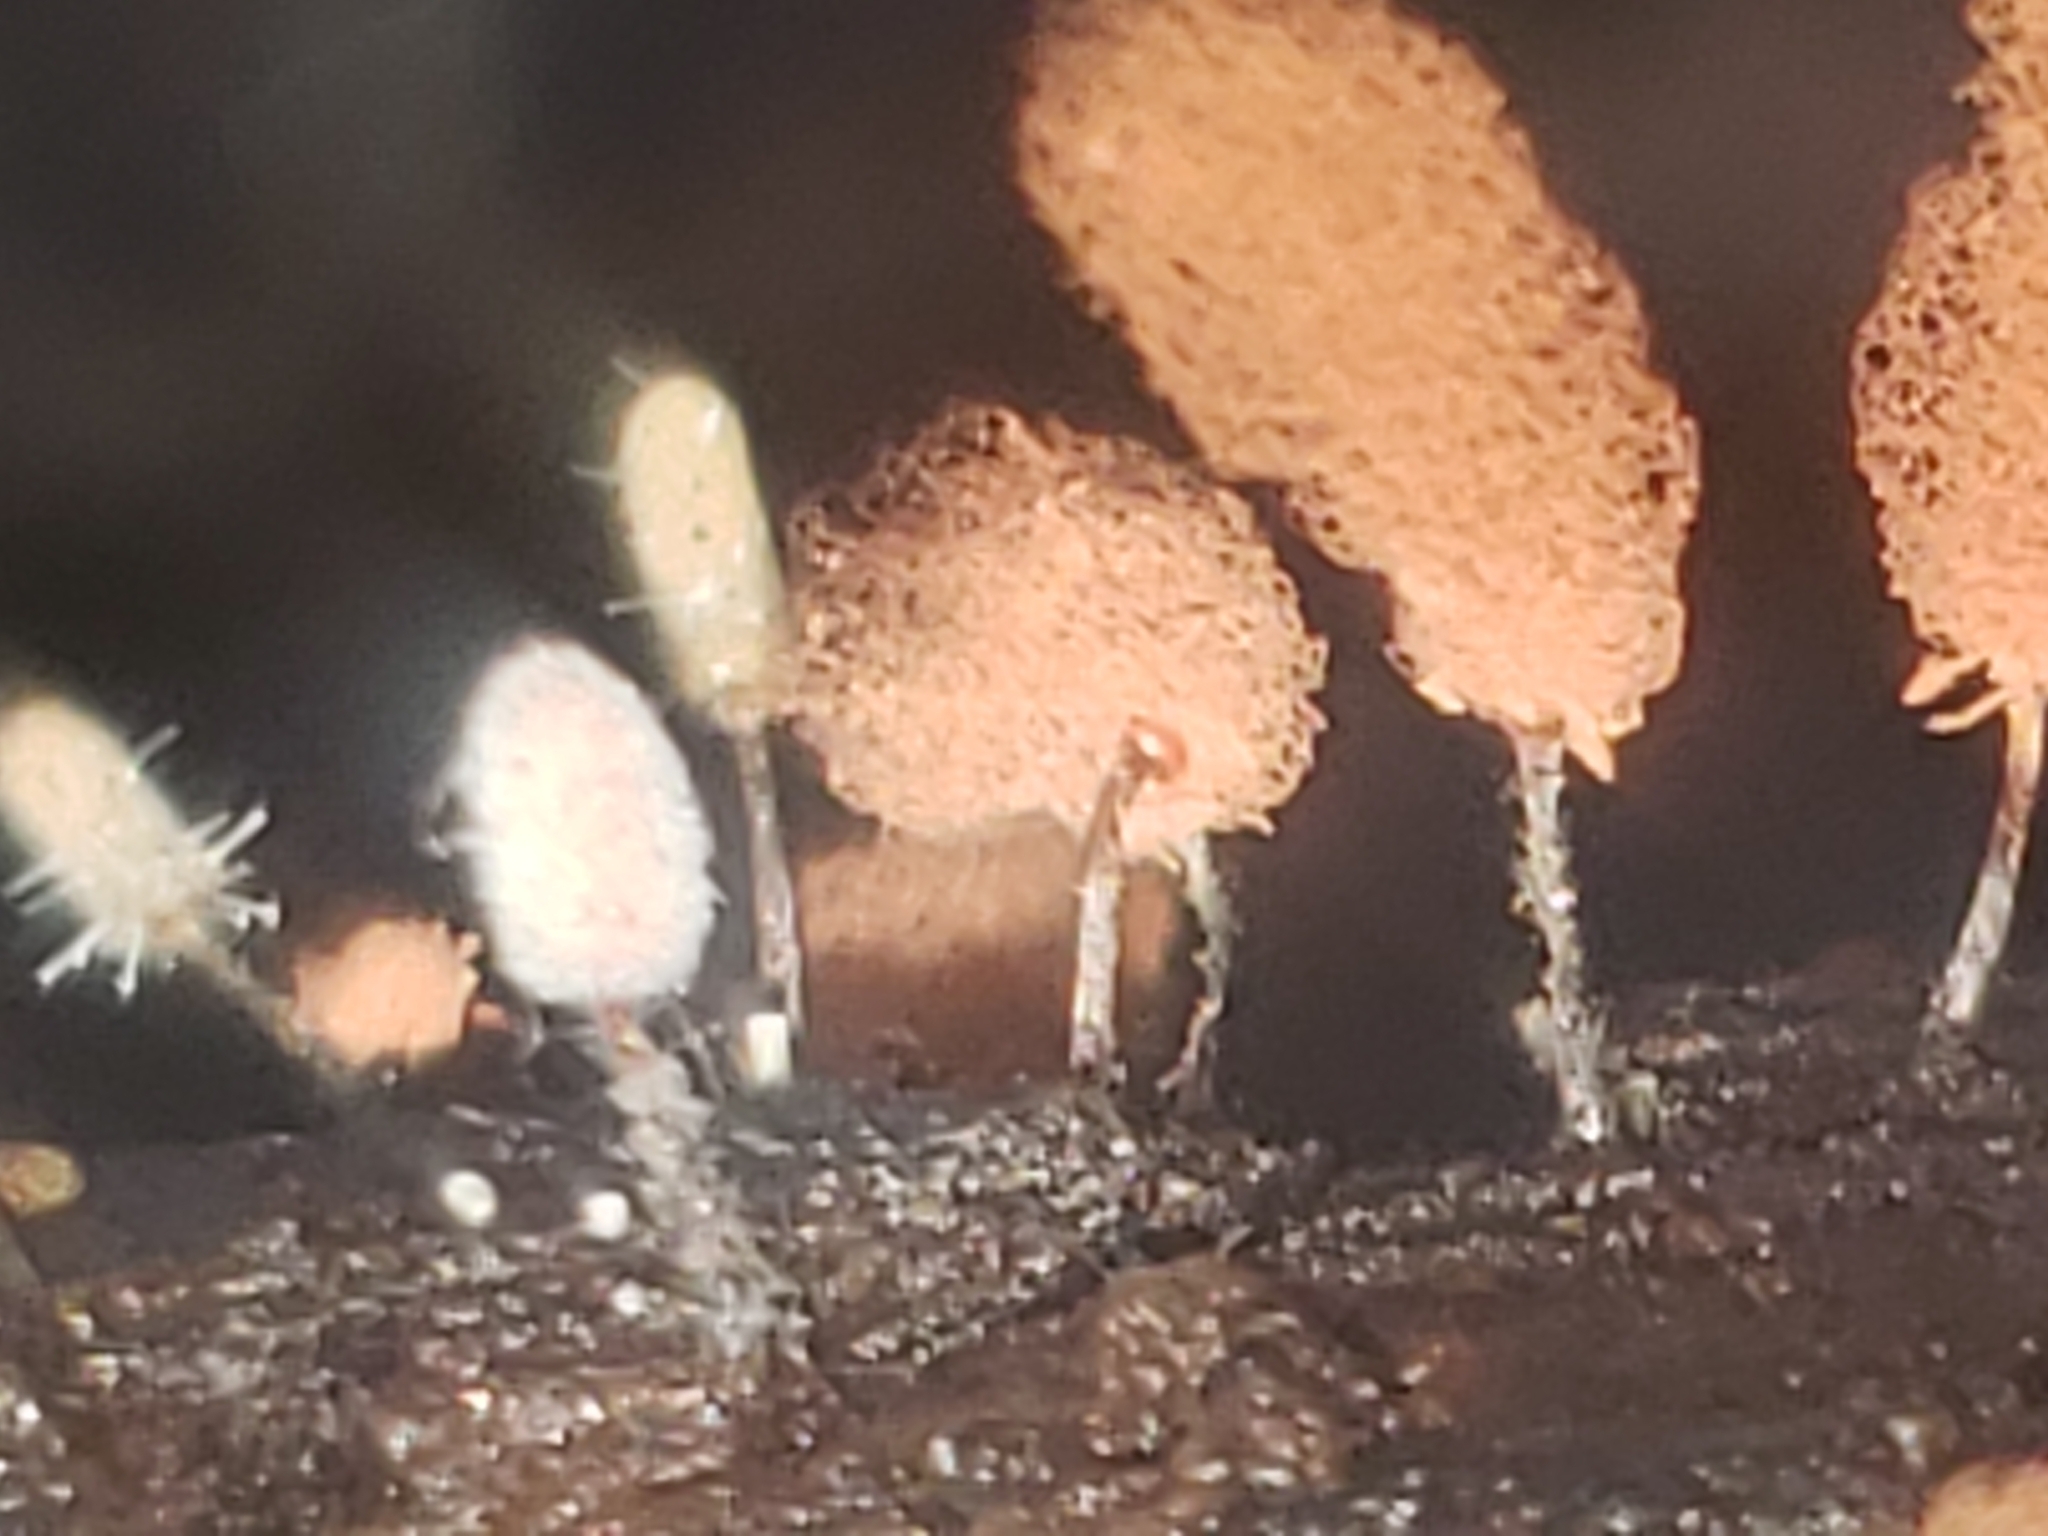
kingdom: Fungi
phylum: Ascomycota
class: Sordariomycetes
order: Hypocreales
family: Ophiocordycipitaceae
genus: Polycephalomyces
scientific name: Polycephalomyces tomentosus
